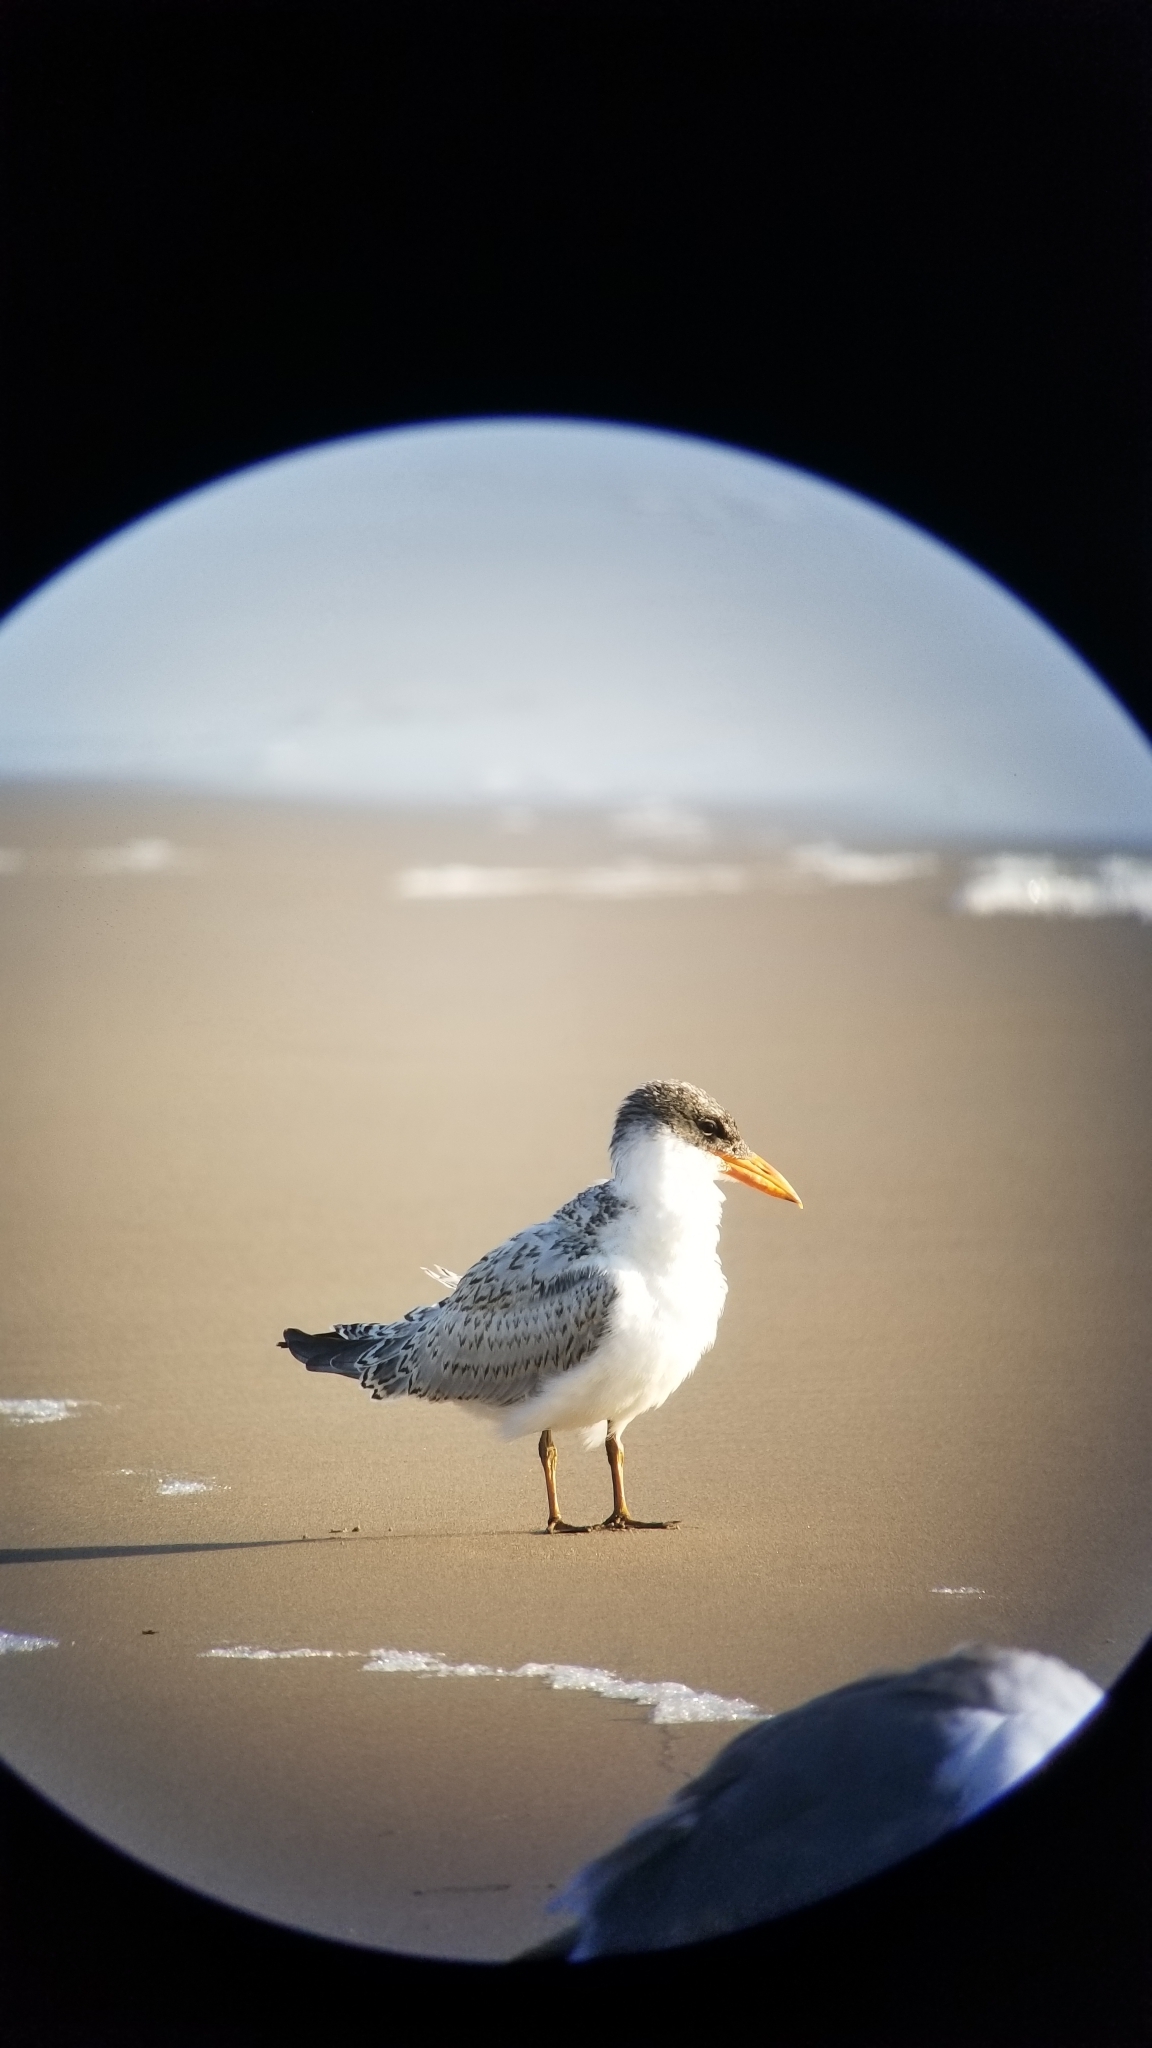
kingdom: Animalia
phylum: Chordata
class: Aves
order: Charadriiformes
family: Laridae
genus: Hydroprogne
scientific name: Hydroprogne caspia
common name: Caspian tern
